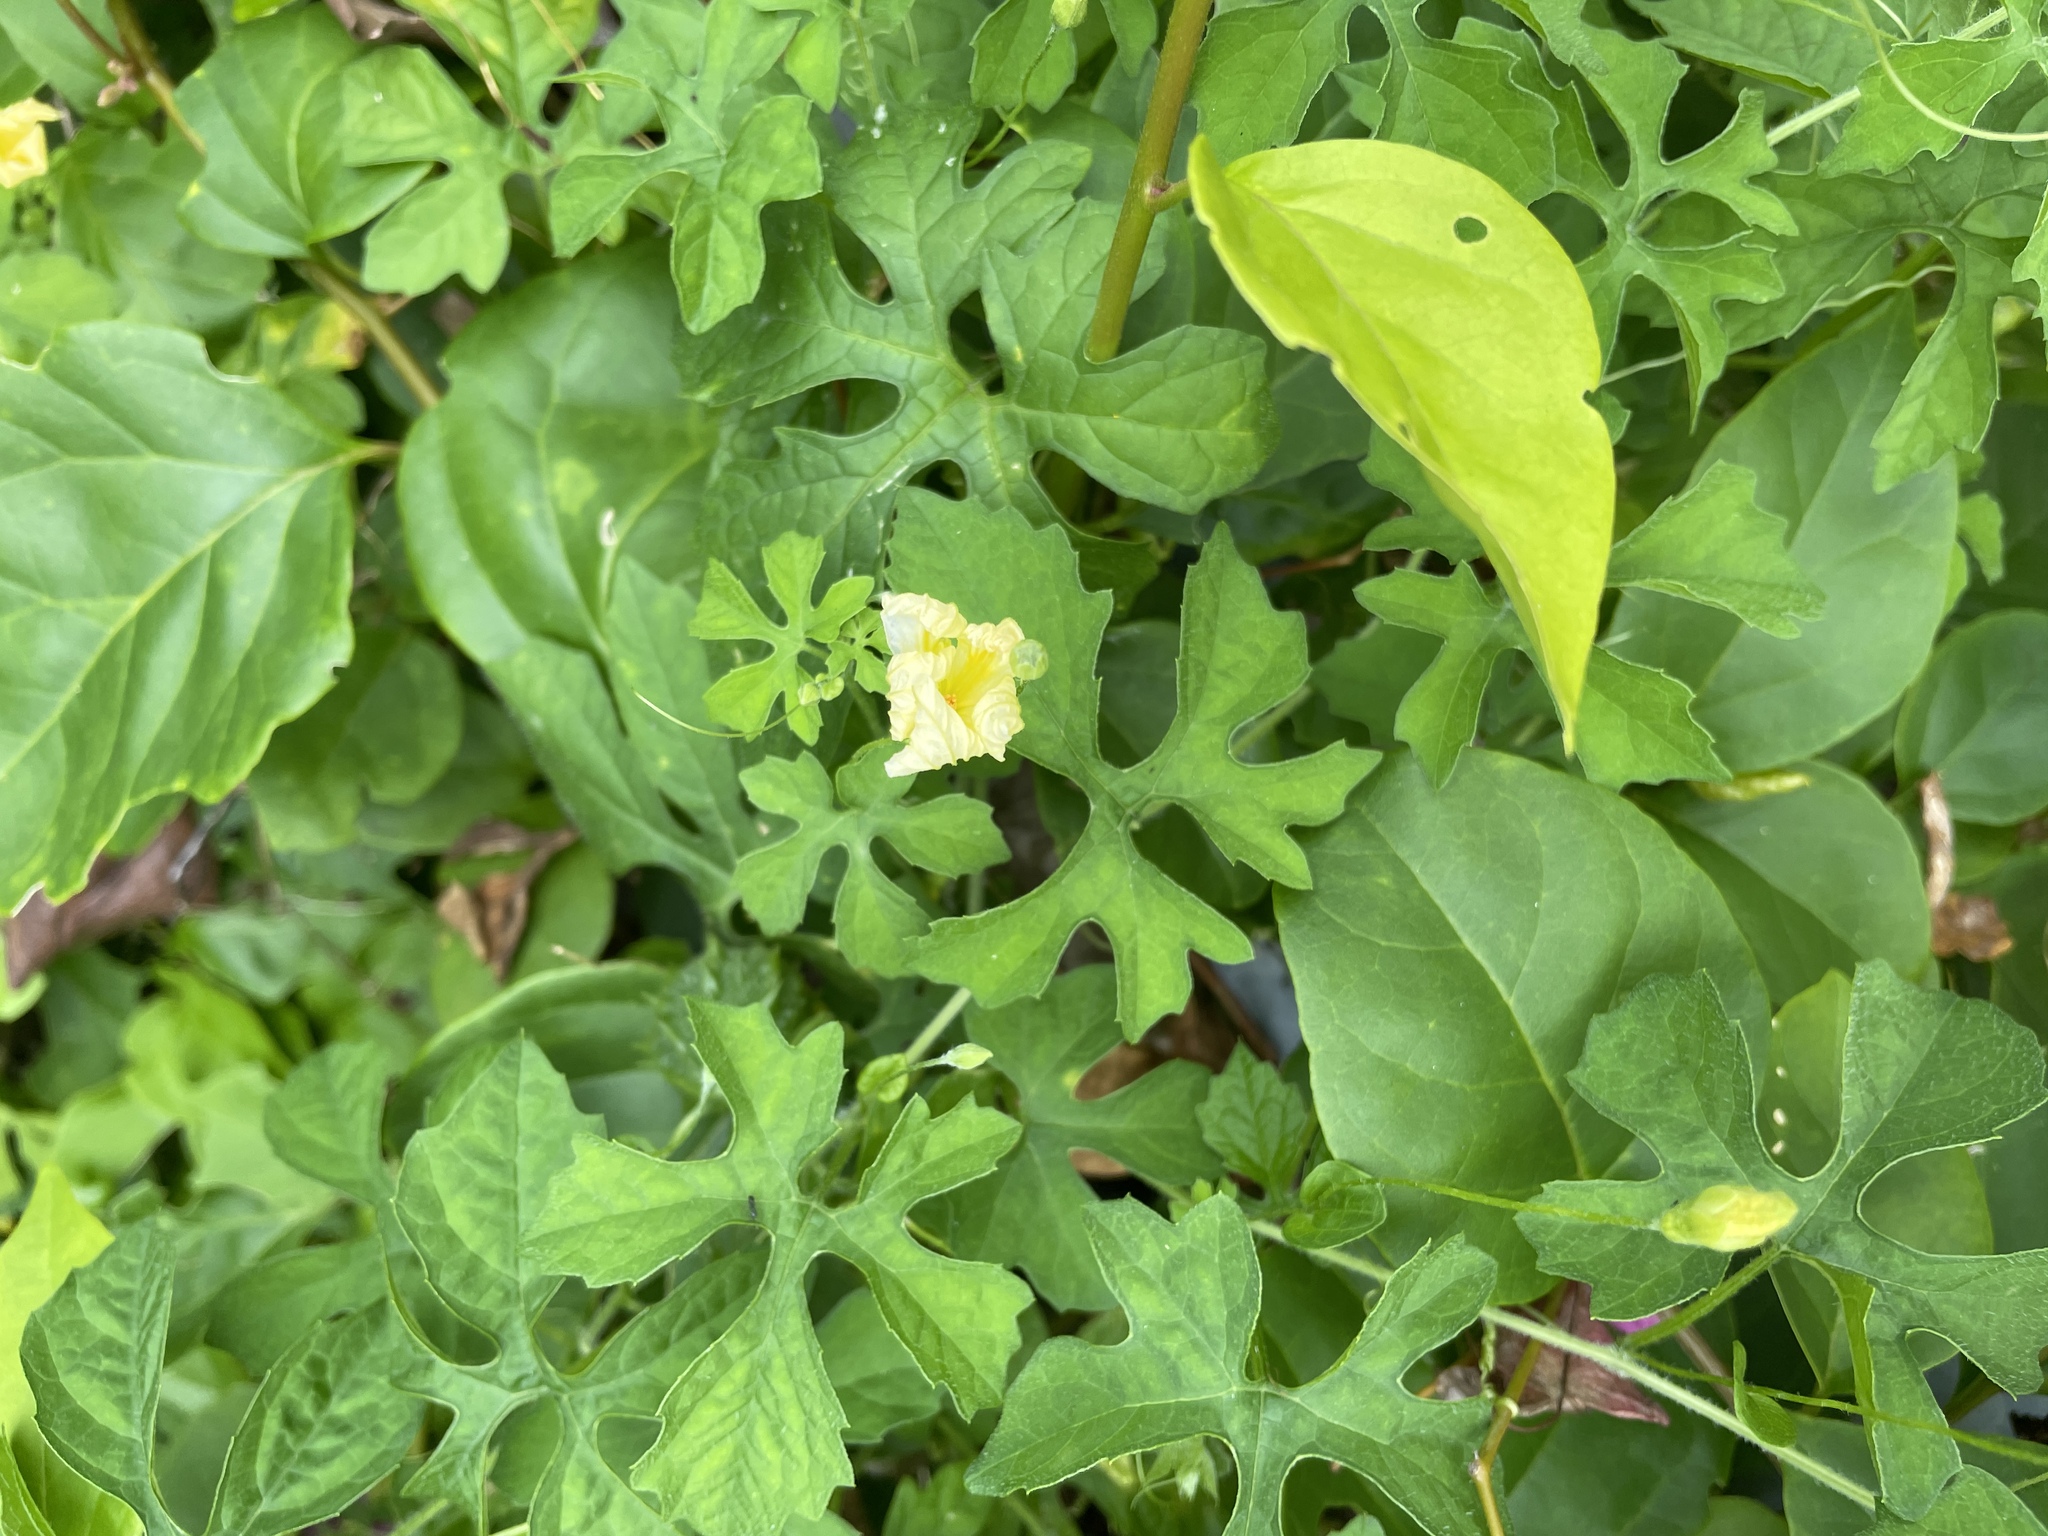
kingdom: Plantae
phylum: Tracheophyta
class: Magnoliopsida
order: Cucurbitales
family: Cucurbitaceae
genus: Momordica
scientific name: Momordica charantia
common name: Balsampear
